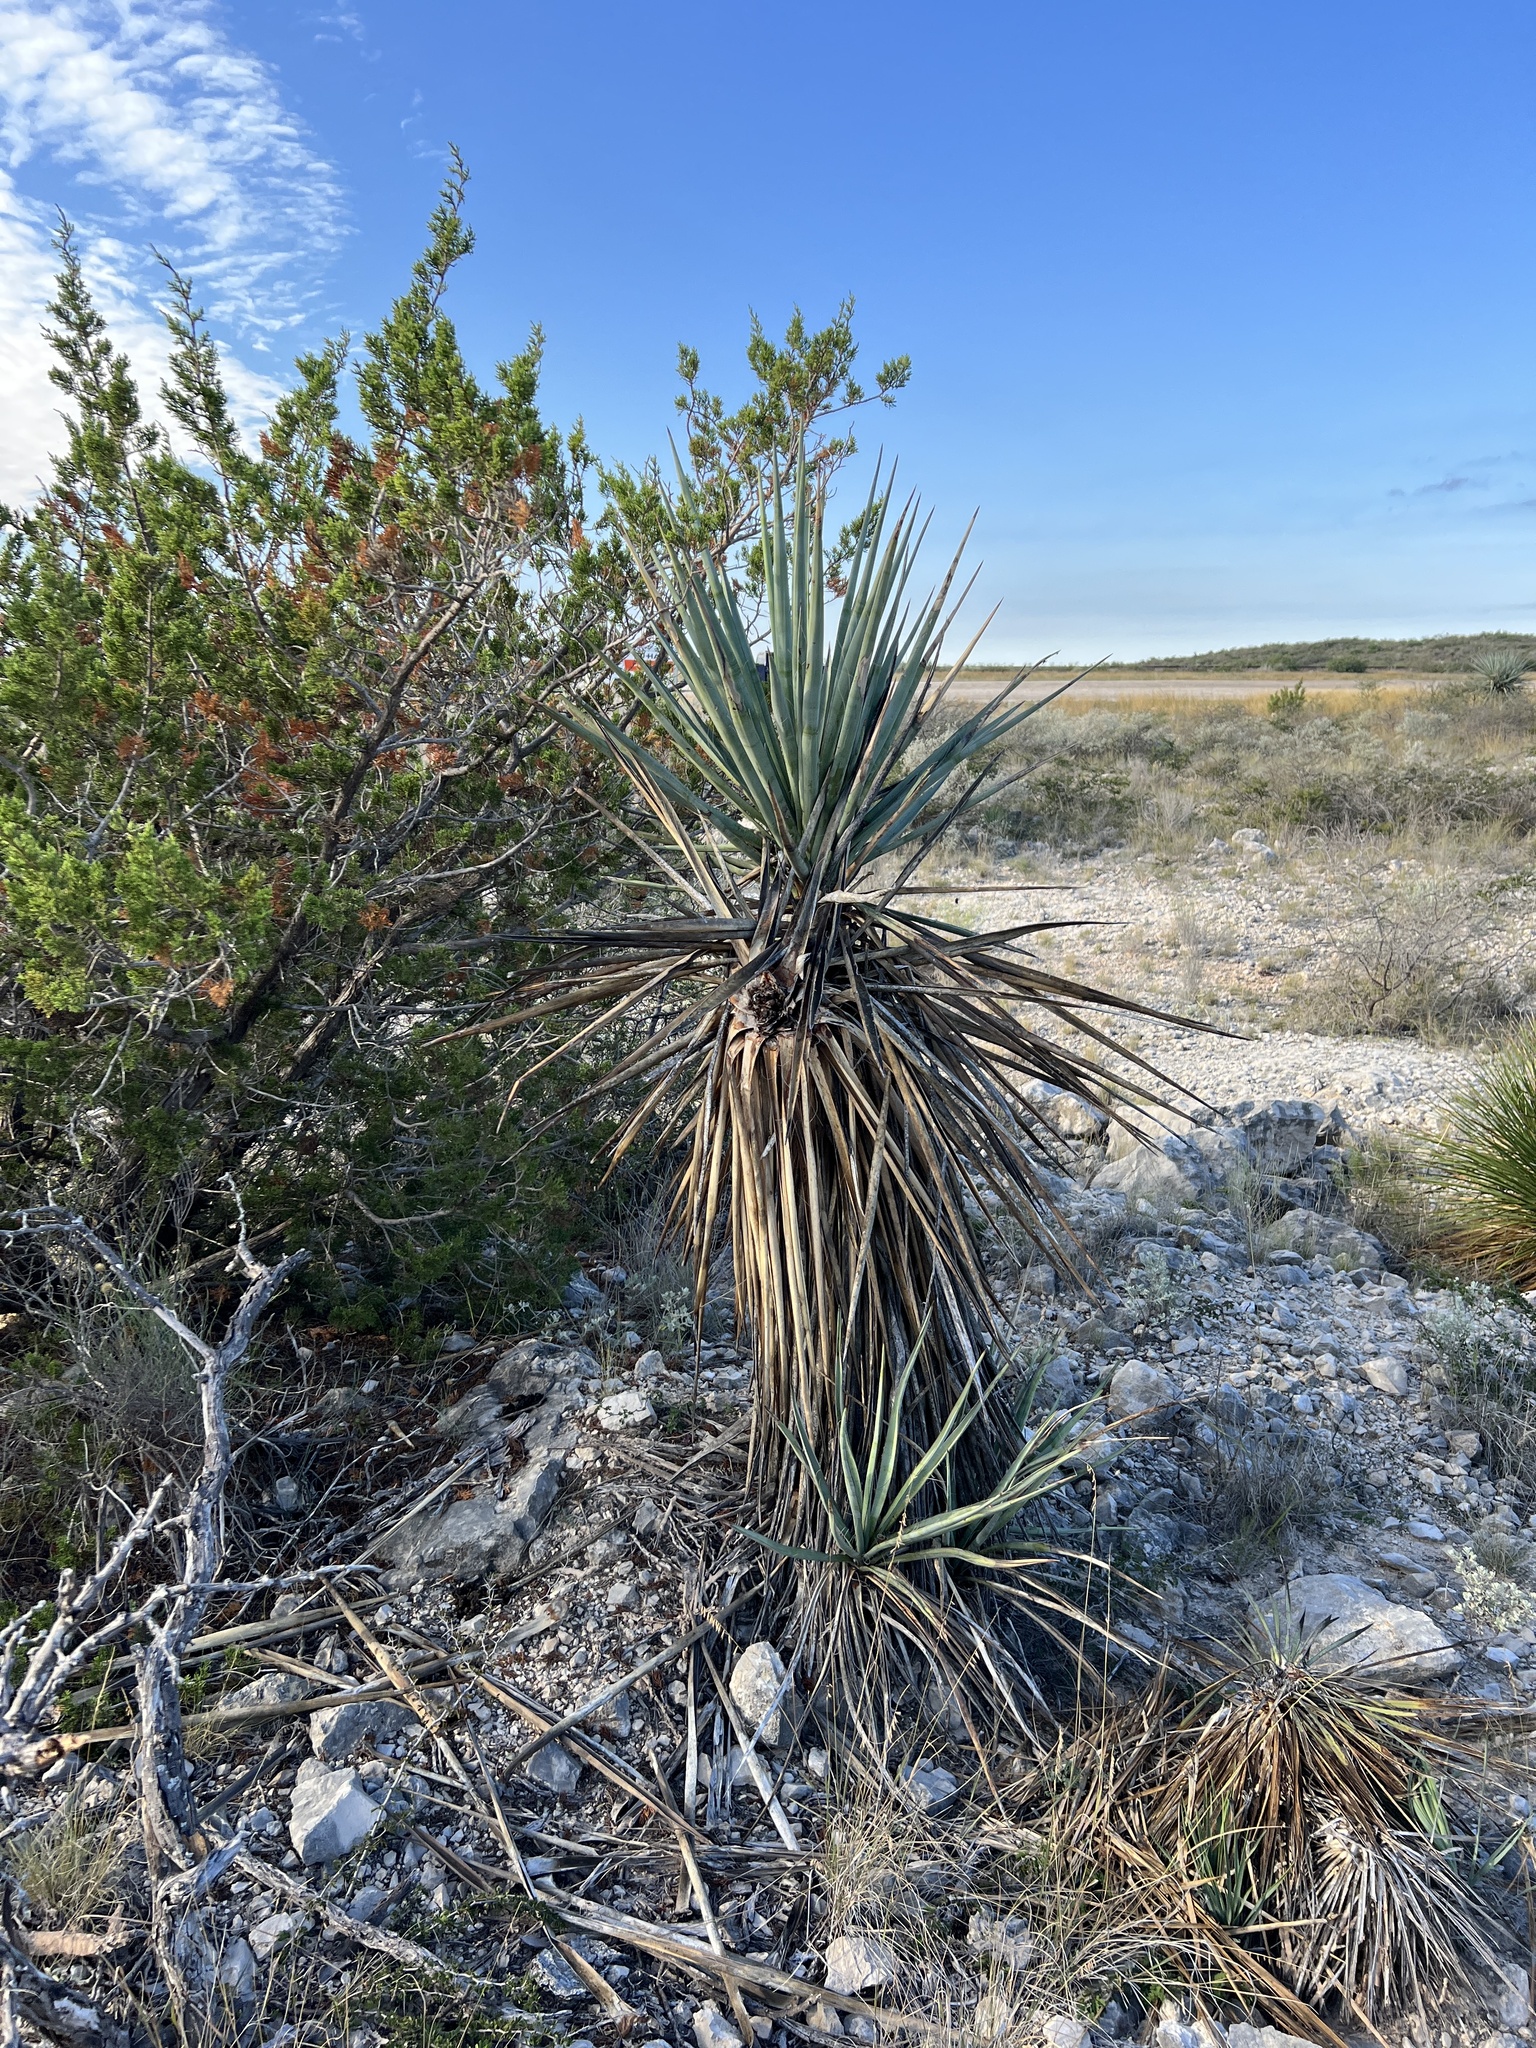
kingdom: Plantae
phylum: Tracheophyta
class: Liliopsida
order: Asparagales
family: Asparagaceae
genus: Yucca
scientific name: Yucca treculiana
